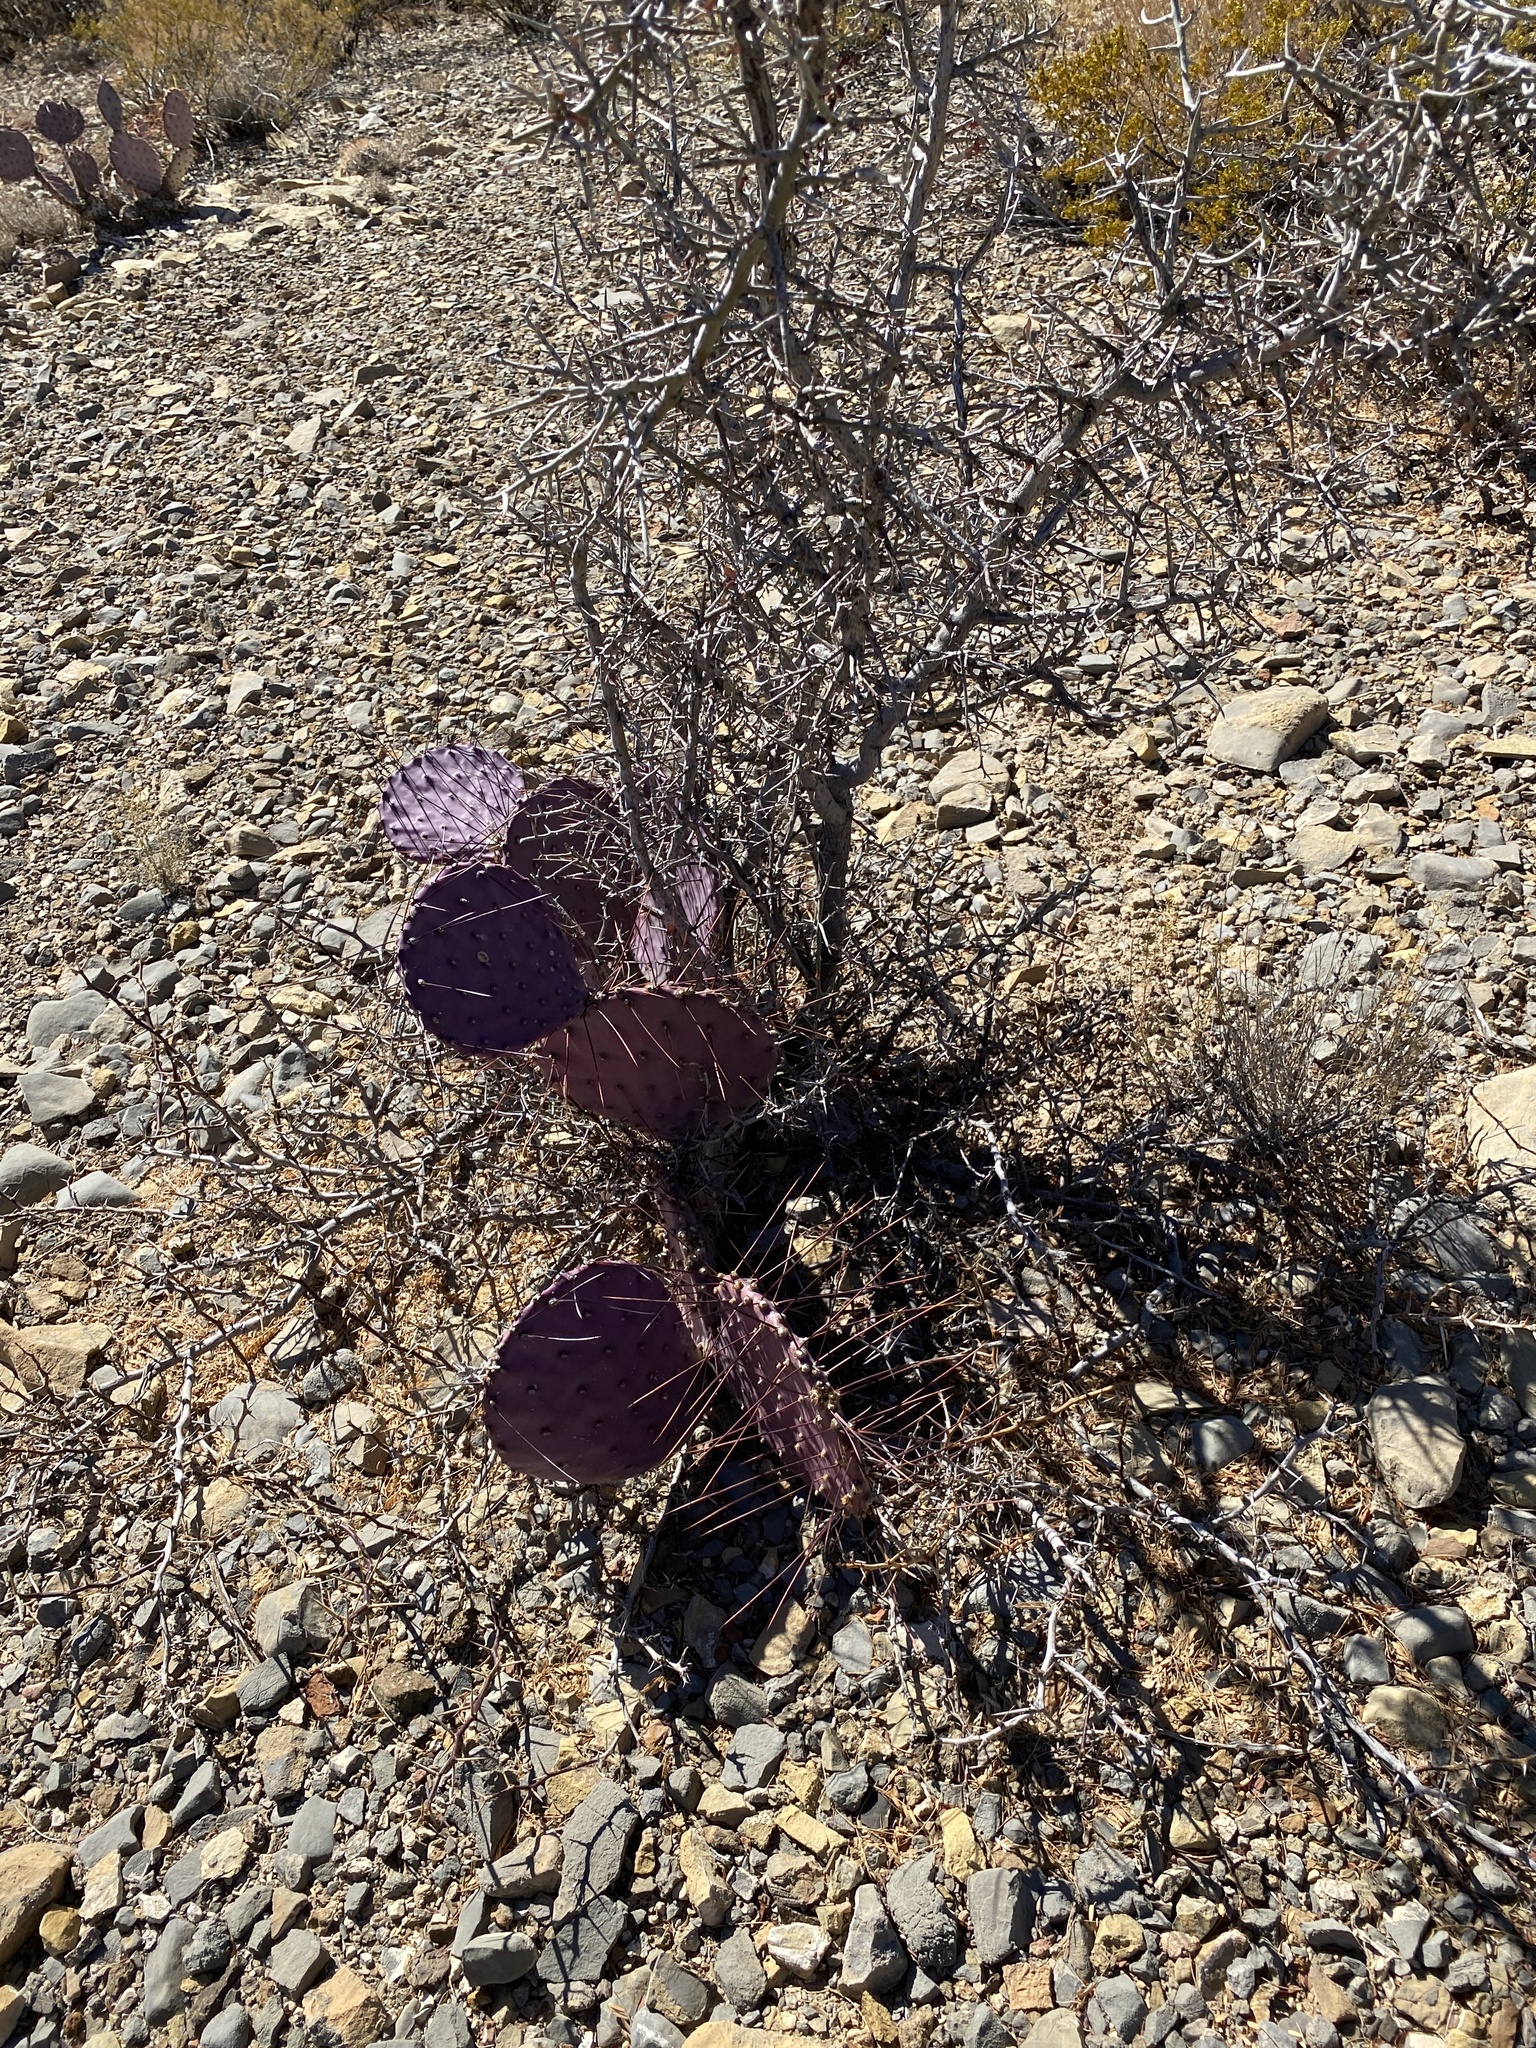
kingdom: Plantae
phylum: Tracheophyta
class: Magnoliopsida
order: Caryophyllales
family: Cactaceae
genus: Opuntia
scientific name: Opuntia macrocentra
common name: Purple prickly-pear
